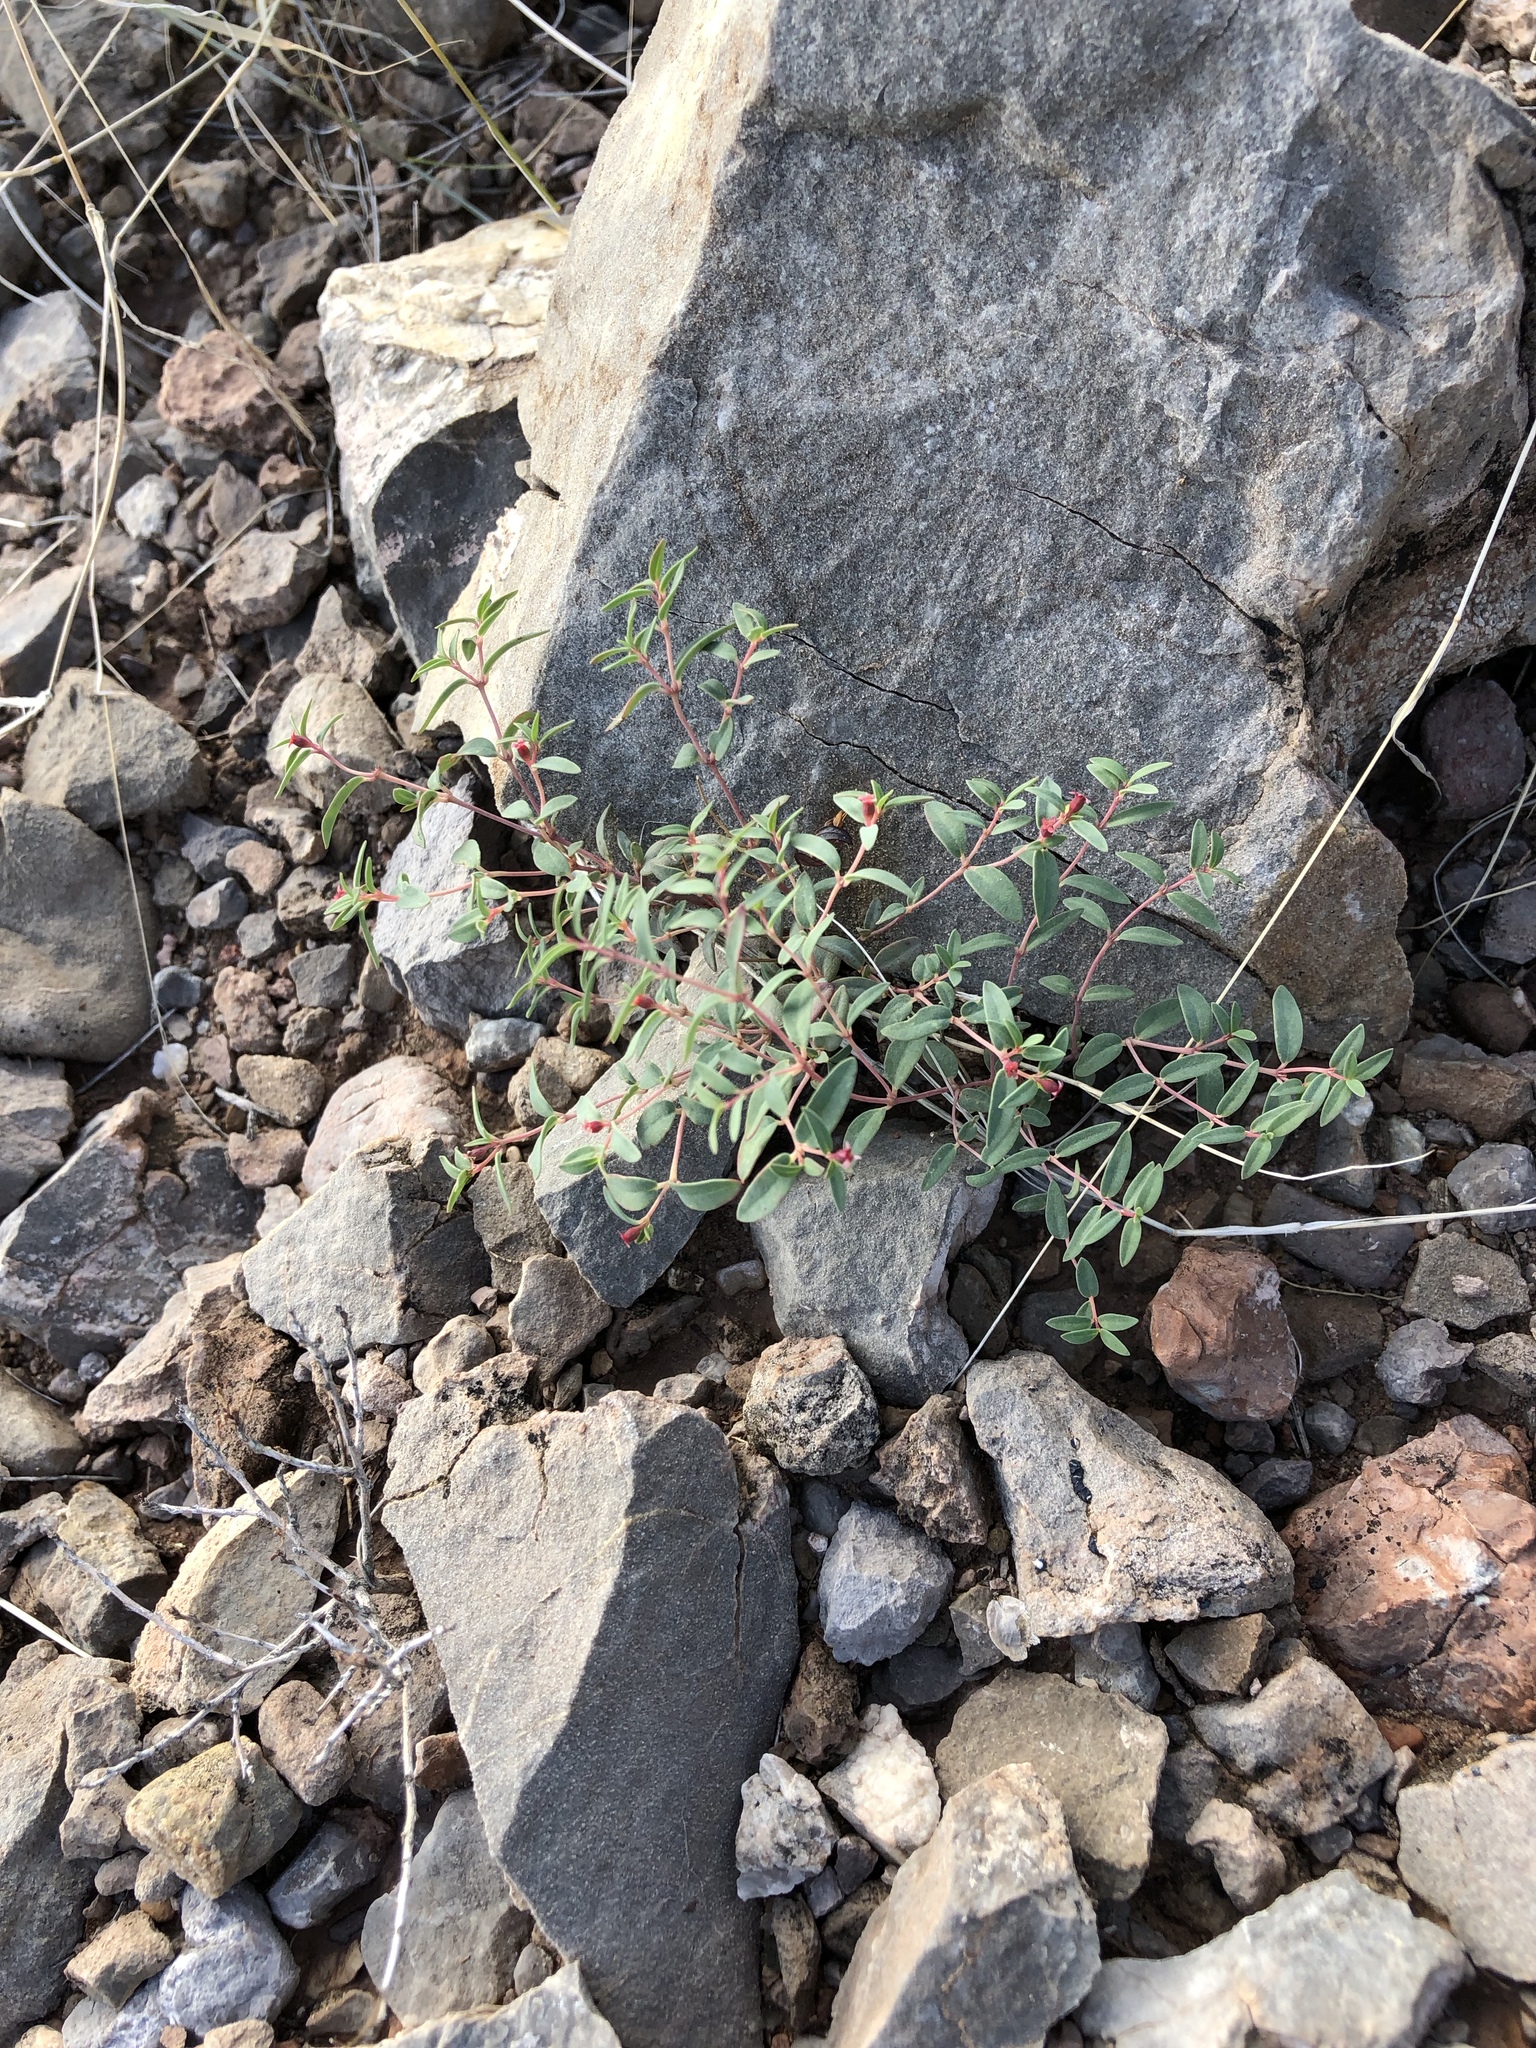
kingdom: Plantae
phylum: Tracheophyta
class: Magnoliopsida
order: Malpighiales
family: Euphorbiaceae
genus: Euphorbia
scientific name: Euphorbia chaetocalyx
